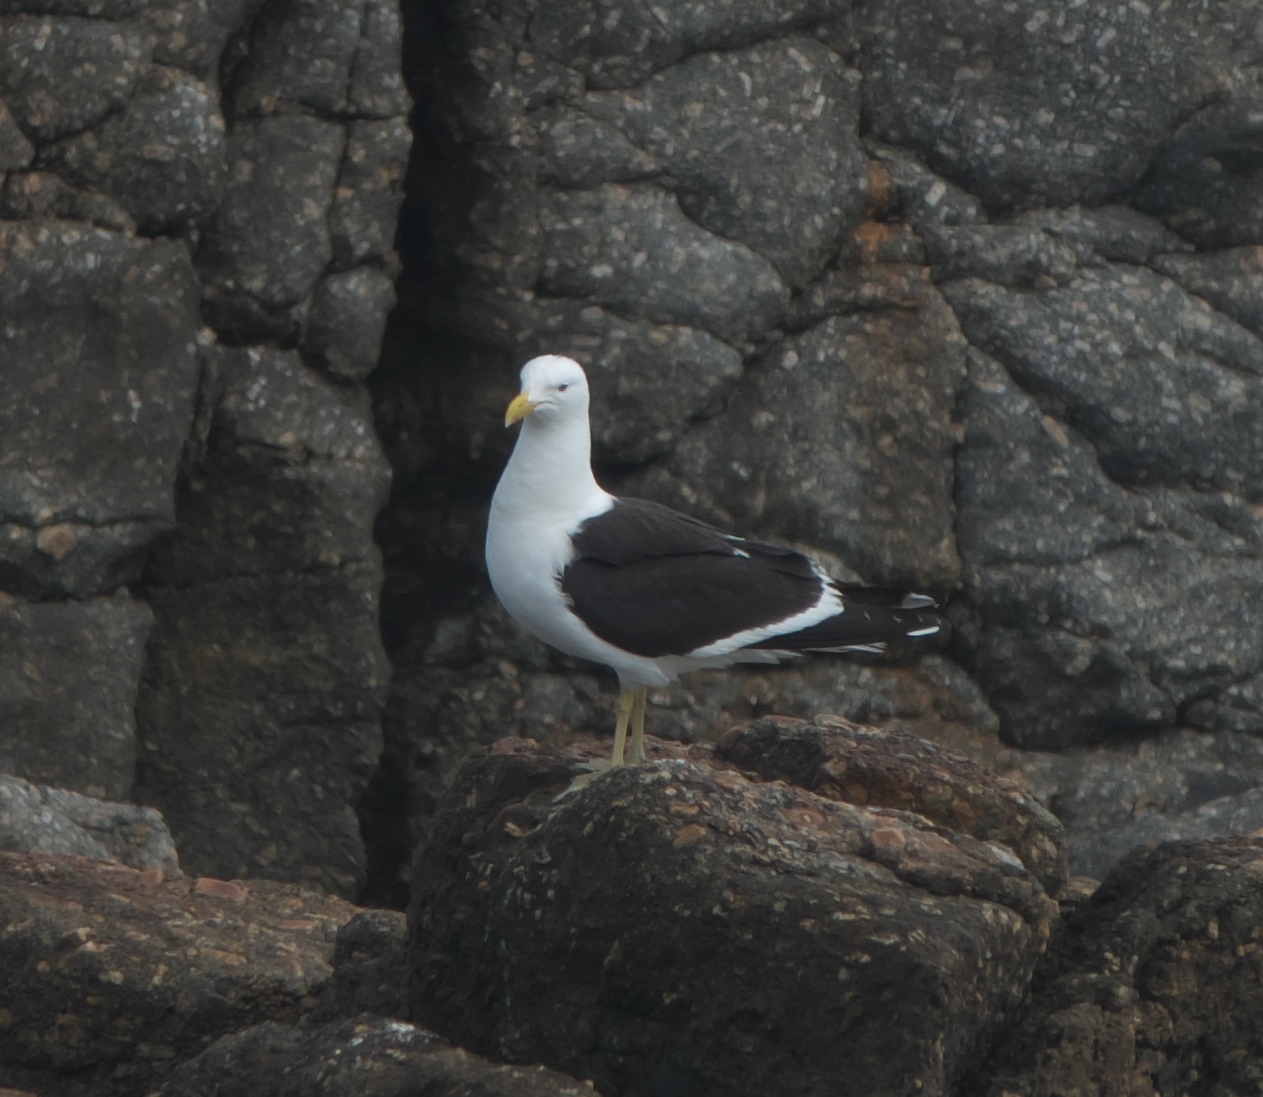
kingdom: Animalia
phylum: Chordata
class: Aves
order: Charadriiformes
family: Laridae
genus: Larus
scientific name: Larus dominicanus
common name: Kelp gull
